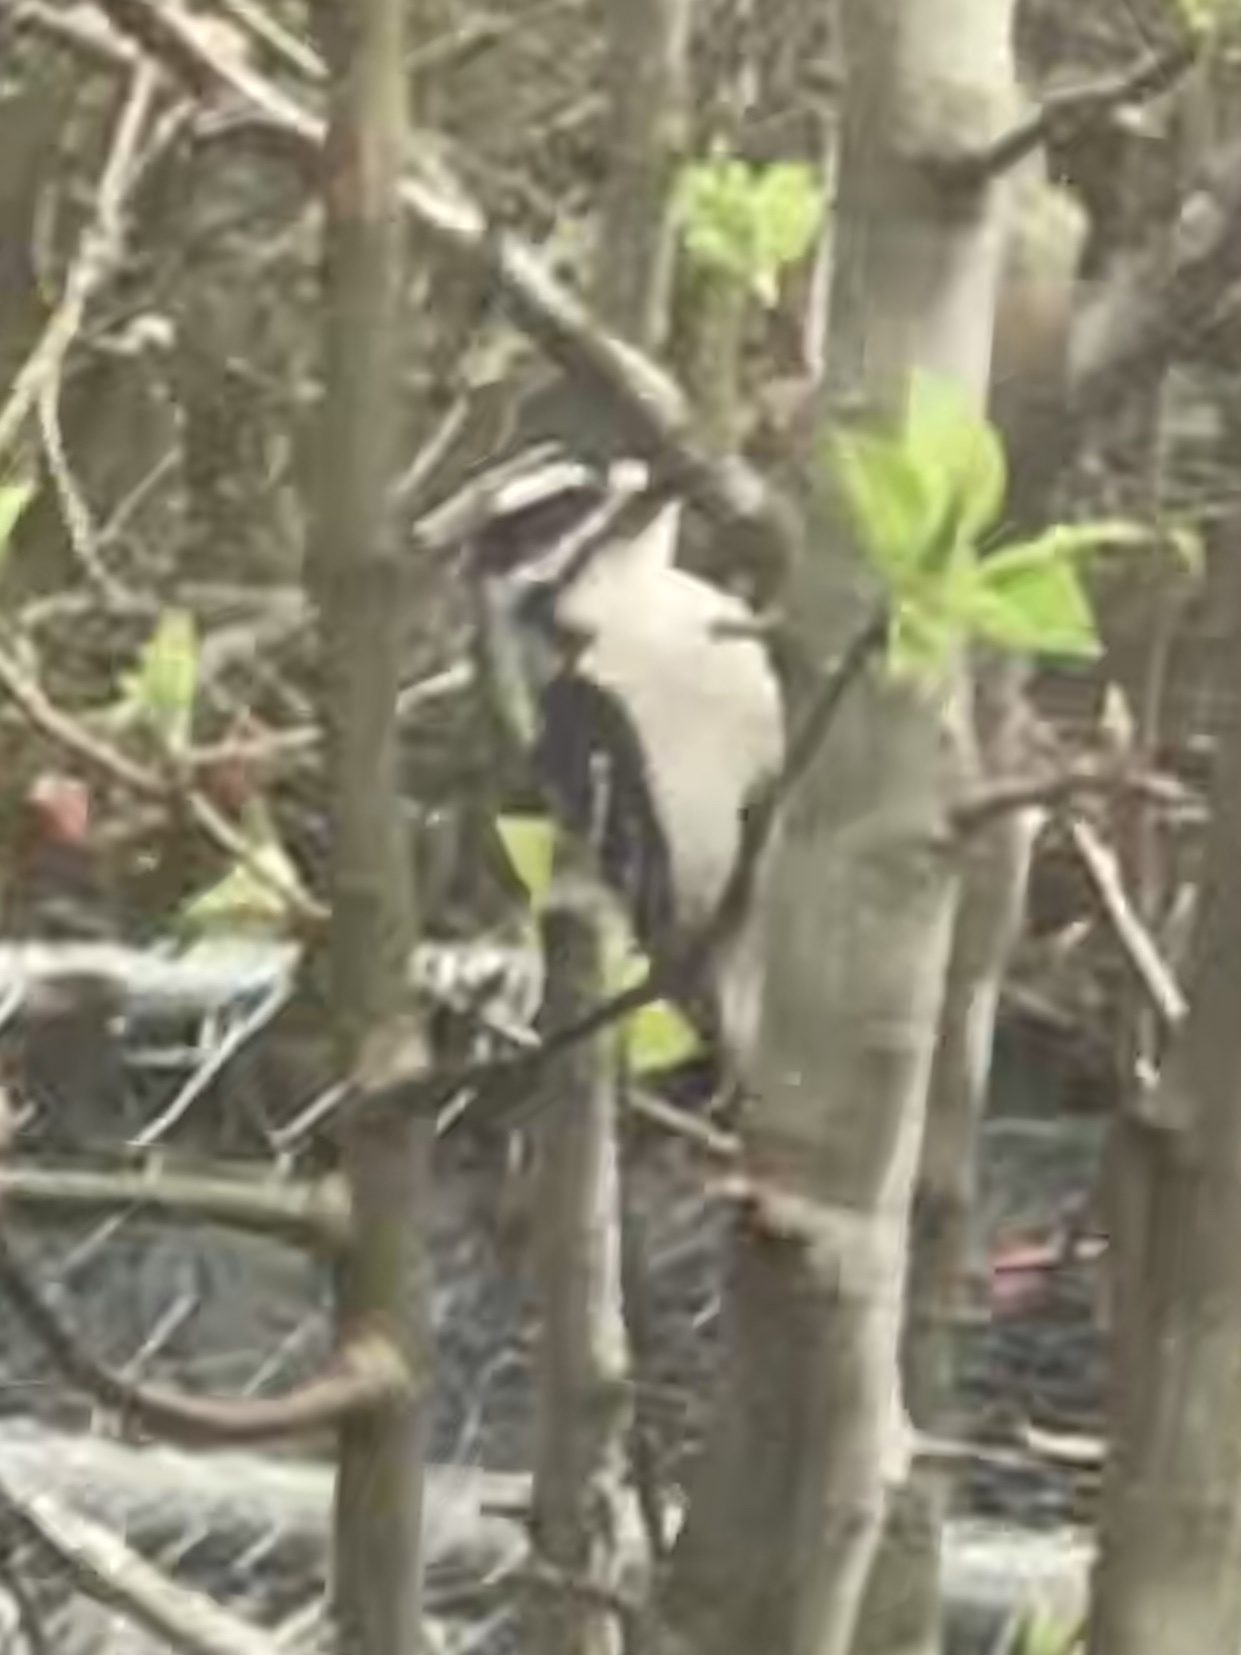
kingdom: Animalia
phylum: Chordata
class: Aves
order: Piciformes
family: Picidae
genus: Dryobates
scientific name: Dryobates pubescens
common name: Downy woodpecker
